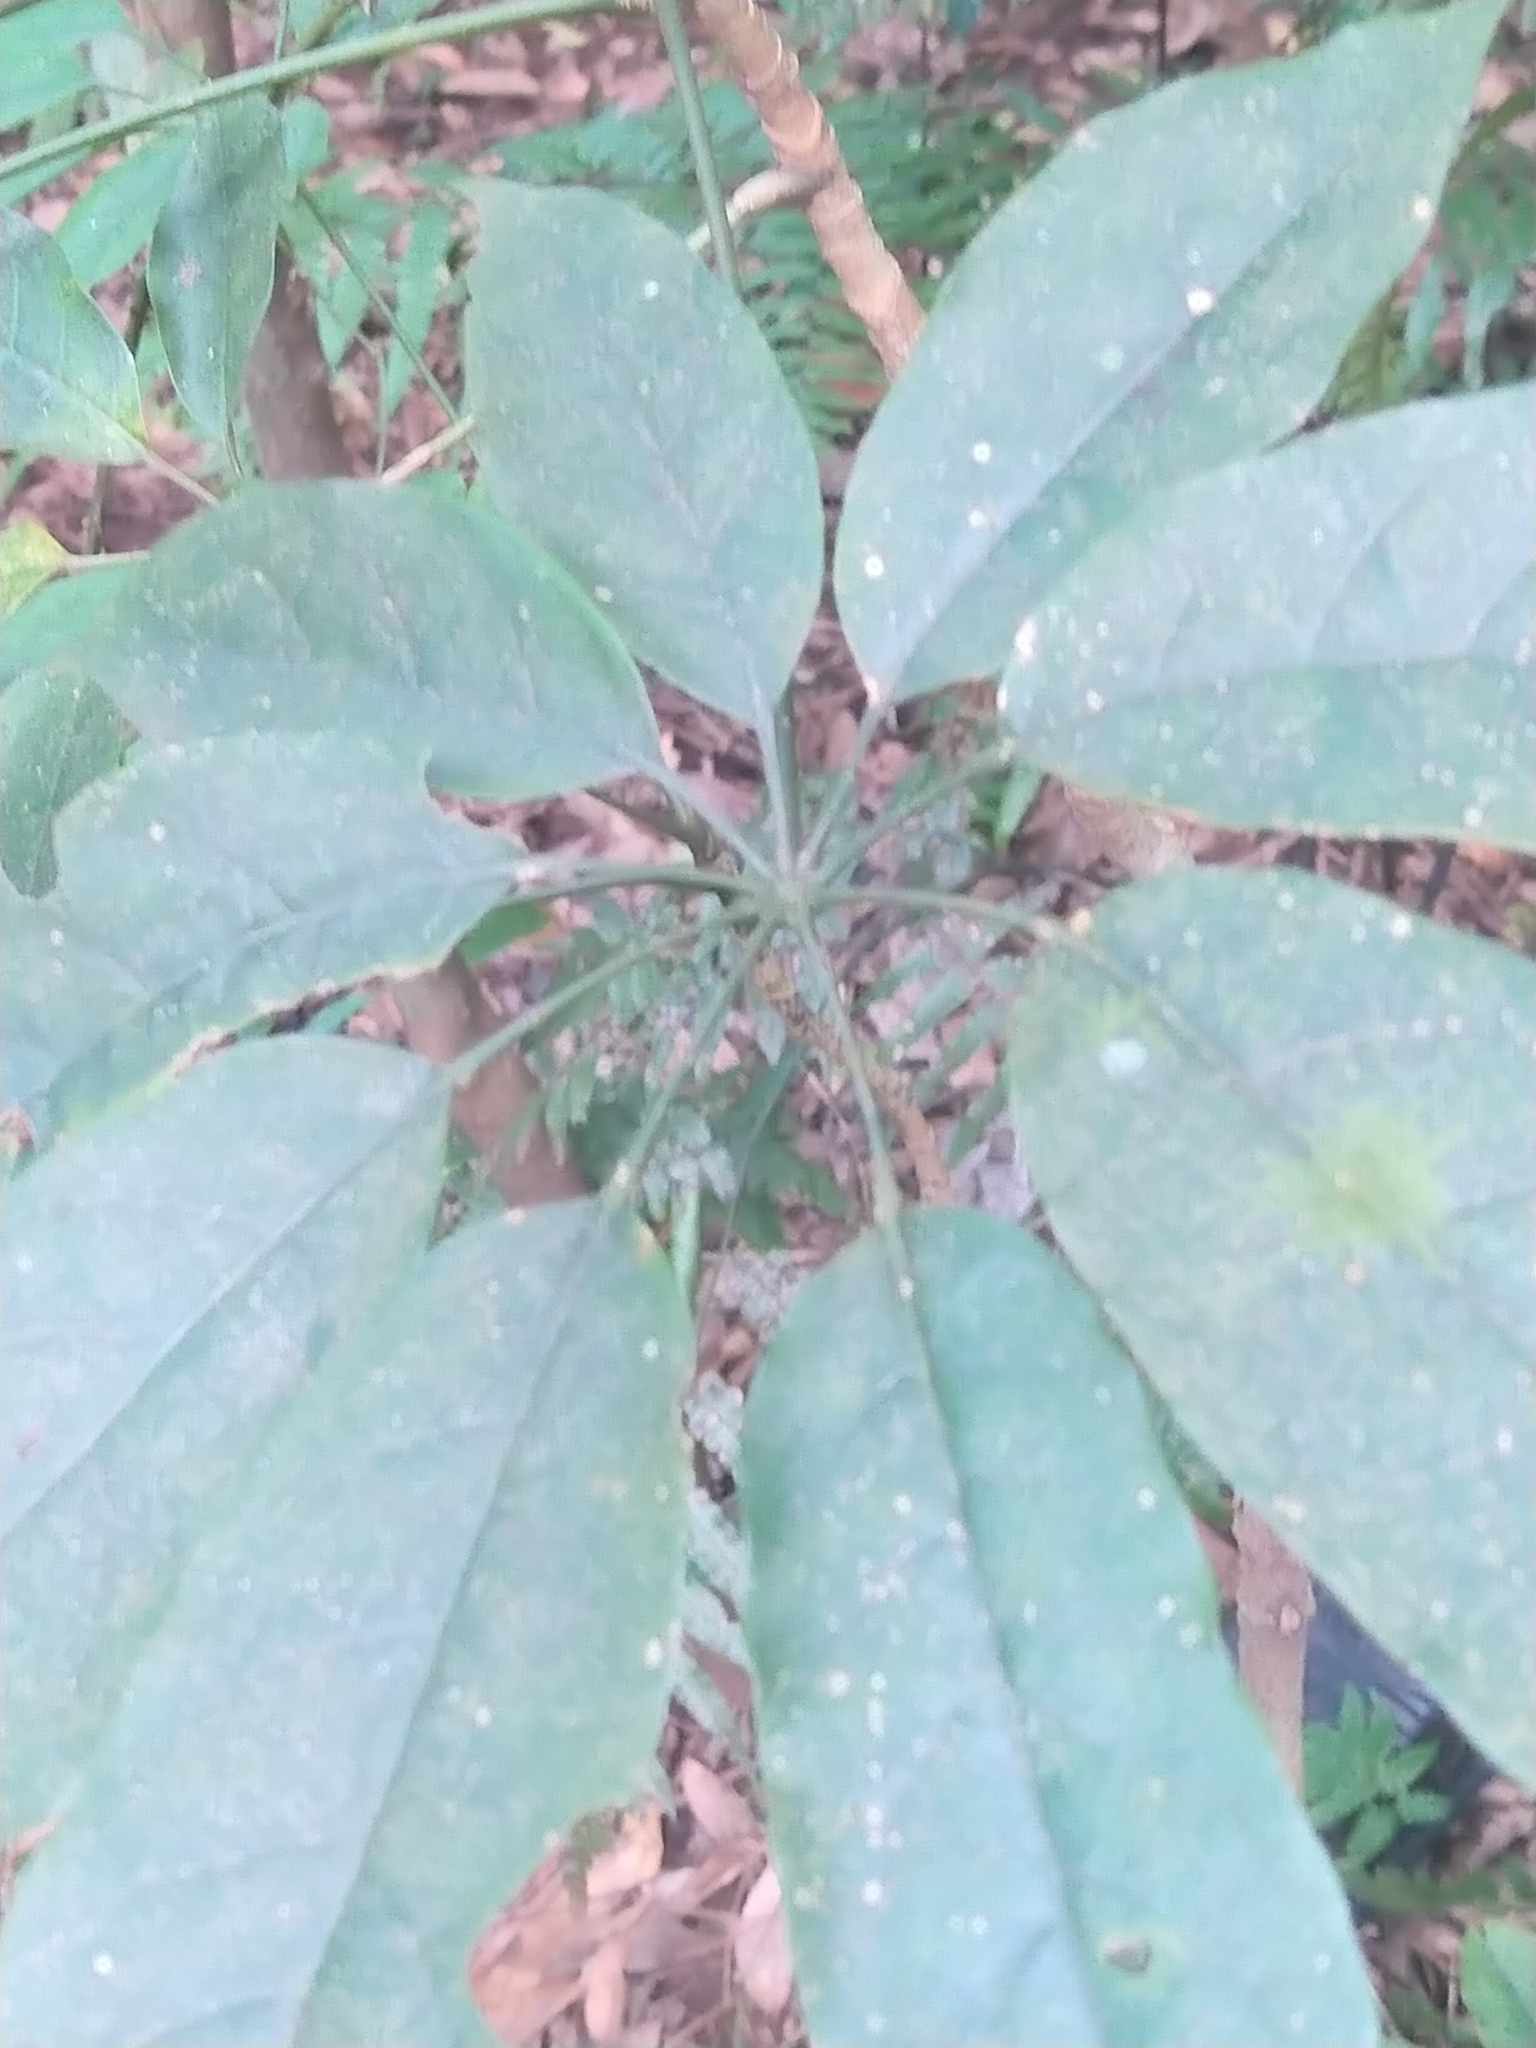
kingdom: Plantae
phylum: Tracheophyta
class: Magnoliopsida
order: Apiales
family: Araliaceae
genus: Heptapleurum
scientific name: Heptapleurum heptaphyllum
